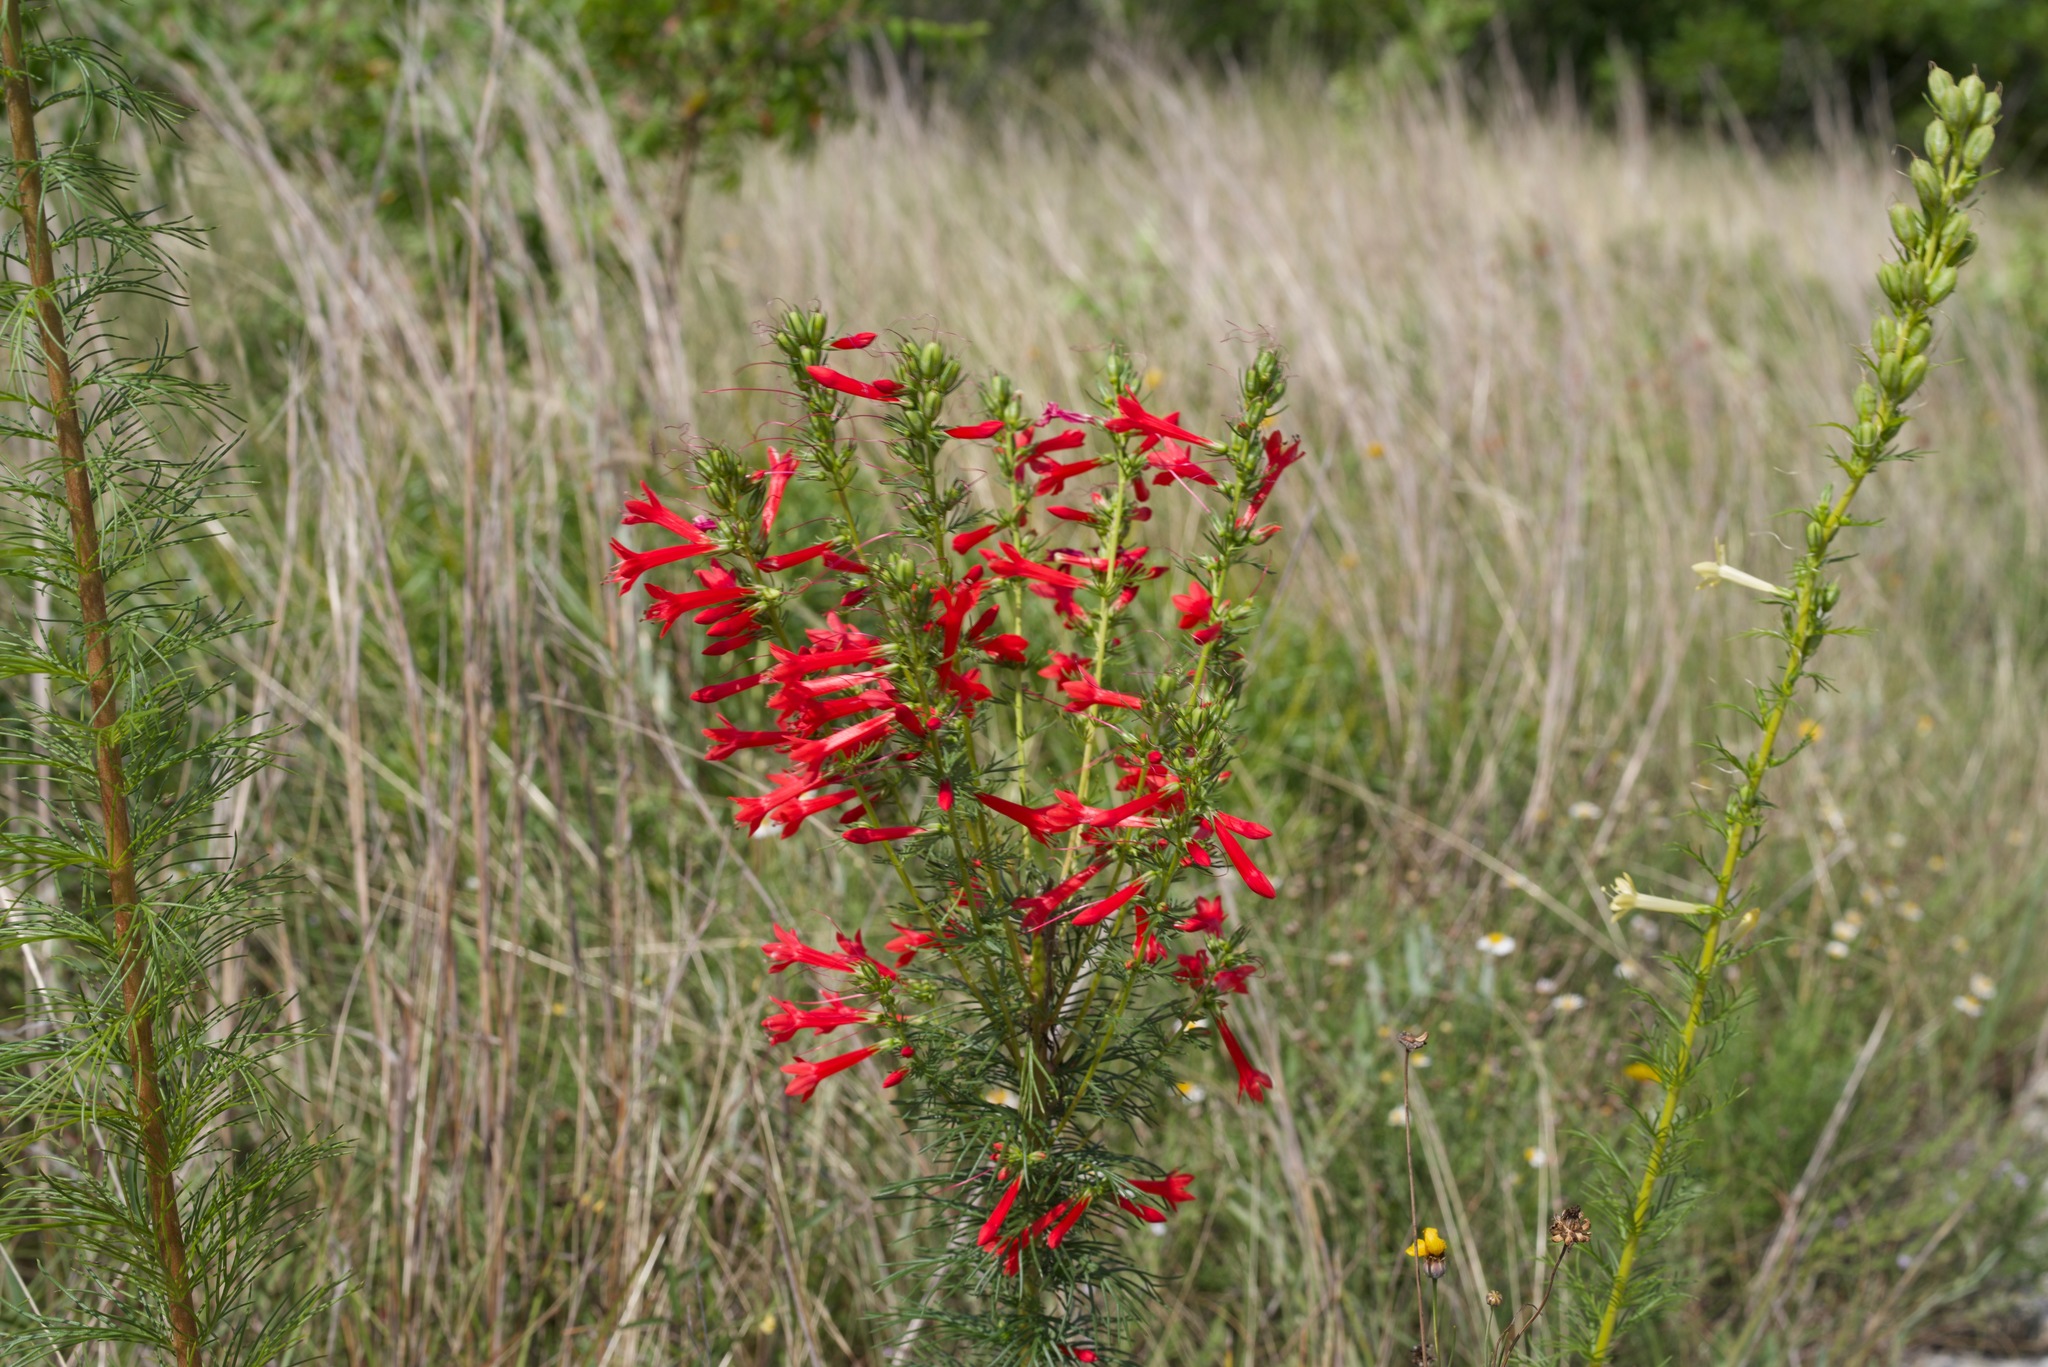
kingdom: Plantae
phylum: Tracheophyta
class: Magnoliopsida
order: Ericales
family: Polemoniaceae
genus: Ipomopsis
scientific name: Ipomopsis rubra
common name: Skyrocket
